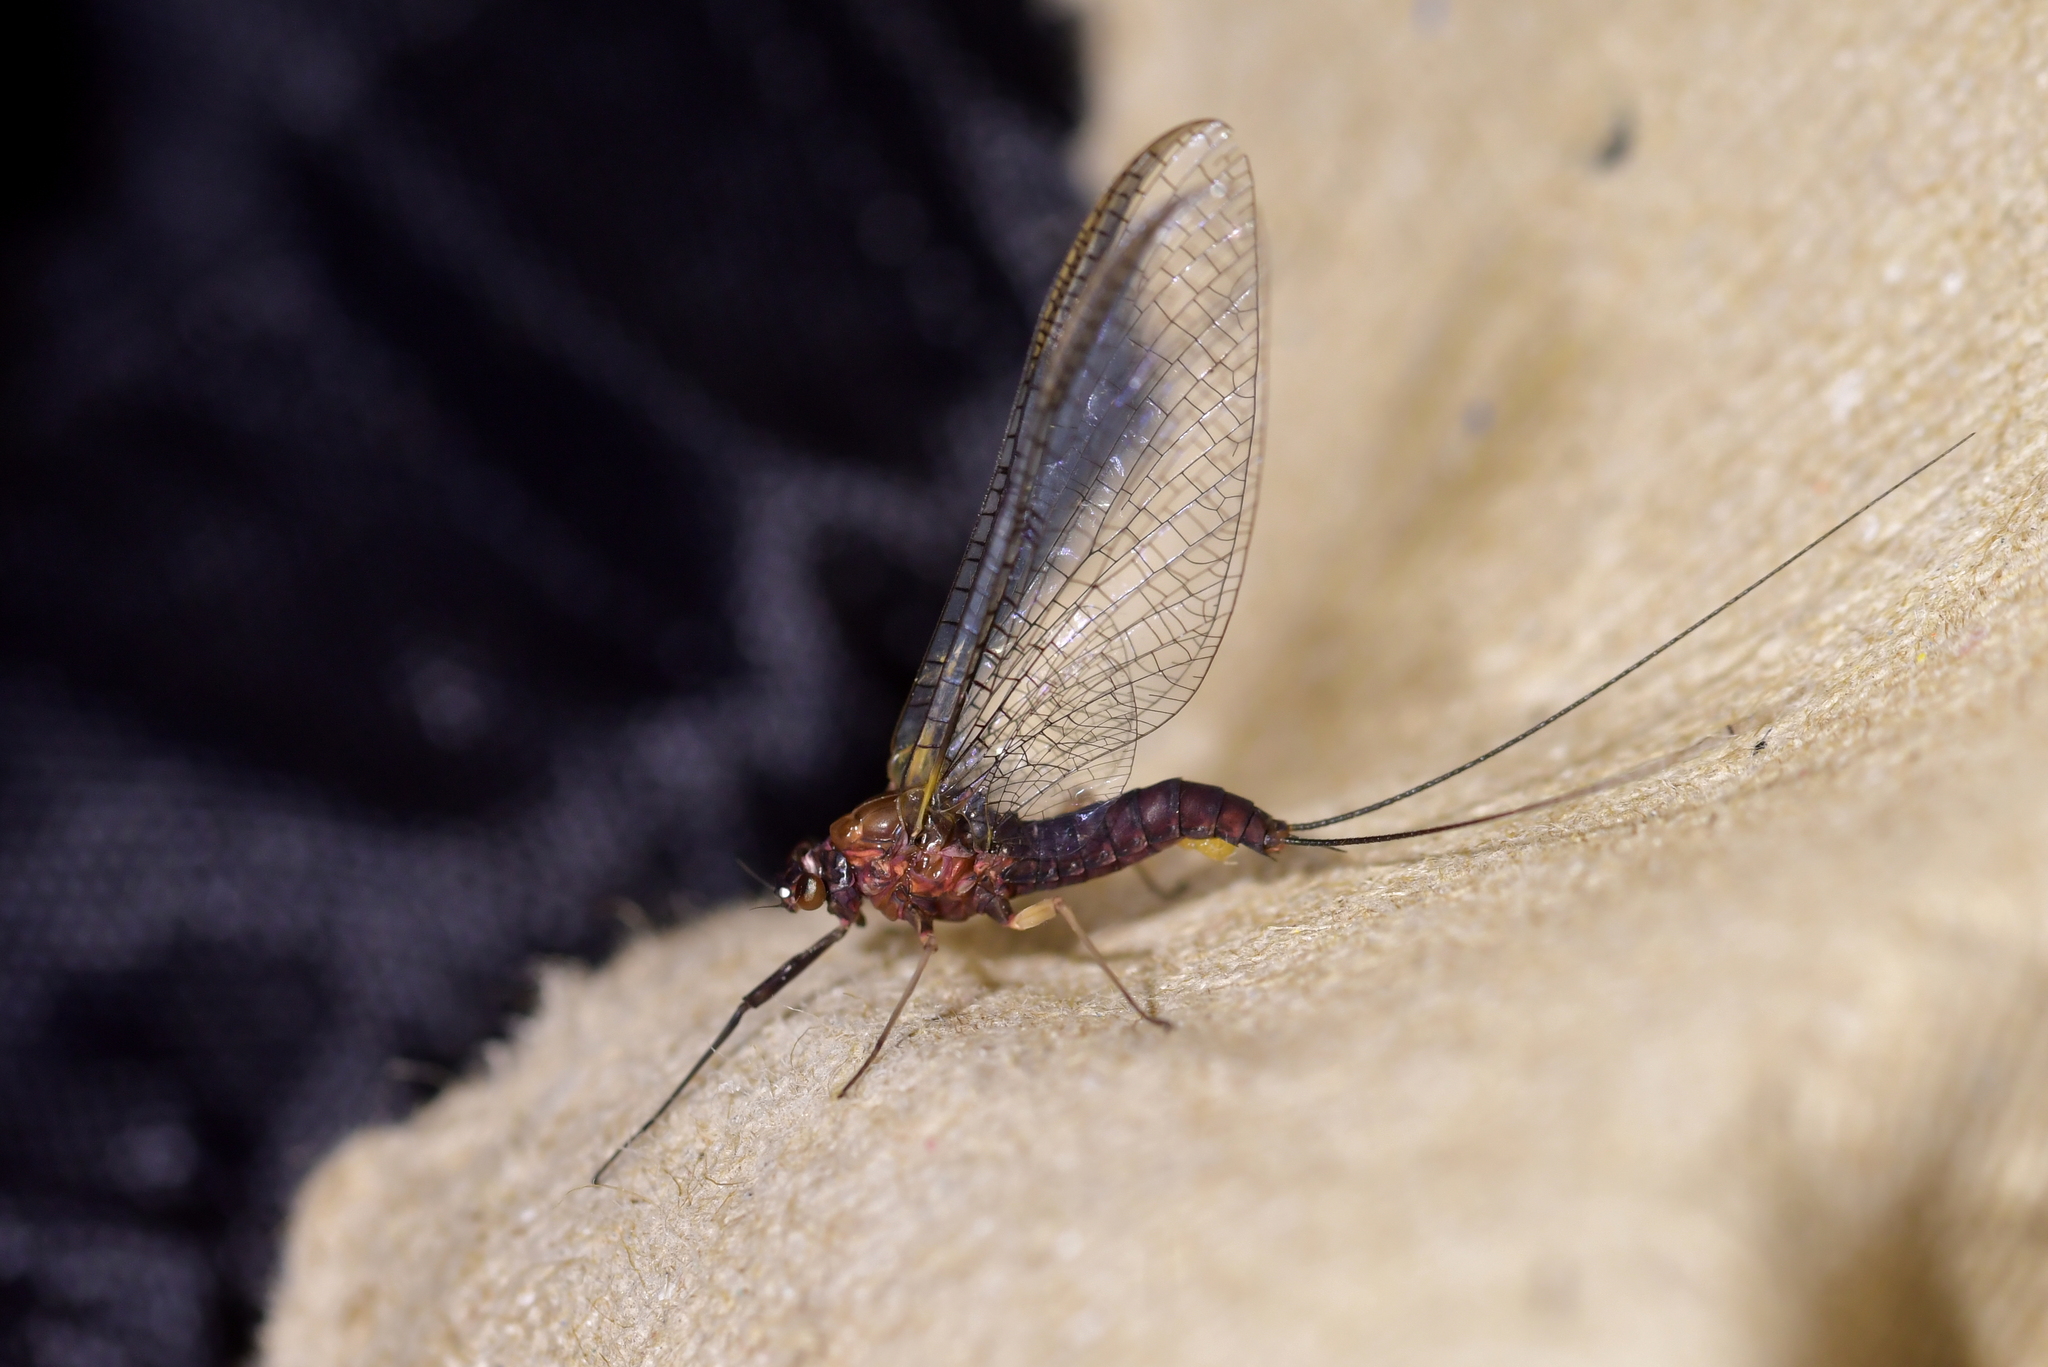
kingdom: Animalia
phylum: Arthropoda
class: Insecta
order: Ephemeroptera
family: Coloburiscidae
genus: Coloburiscus
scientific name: Coloburiscus humeralis
